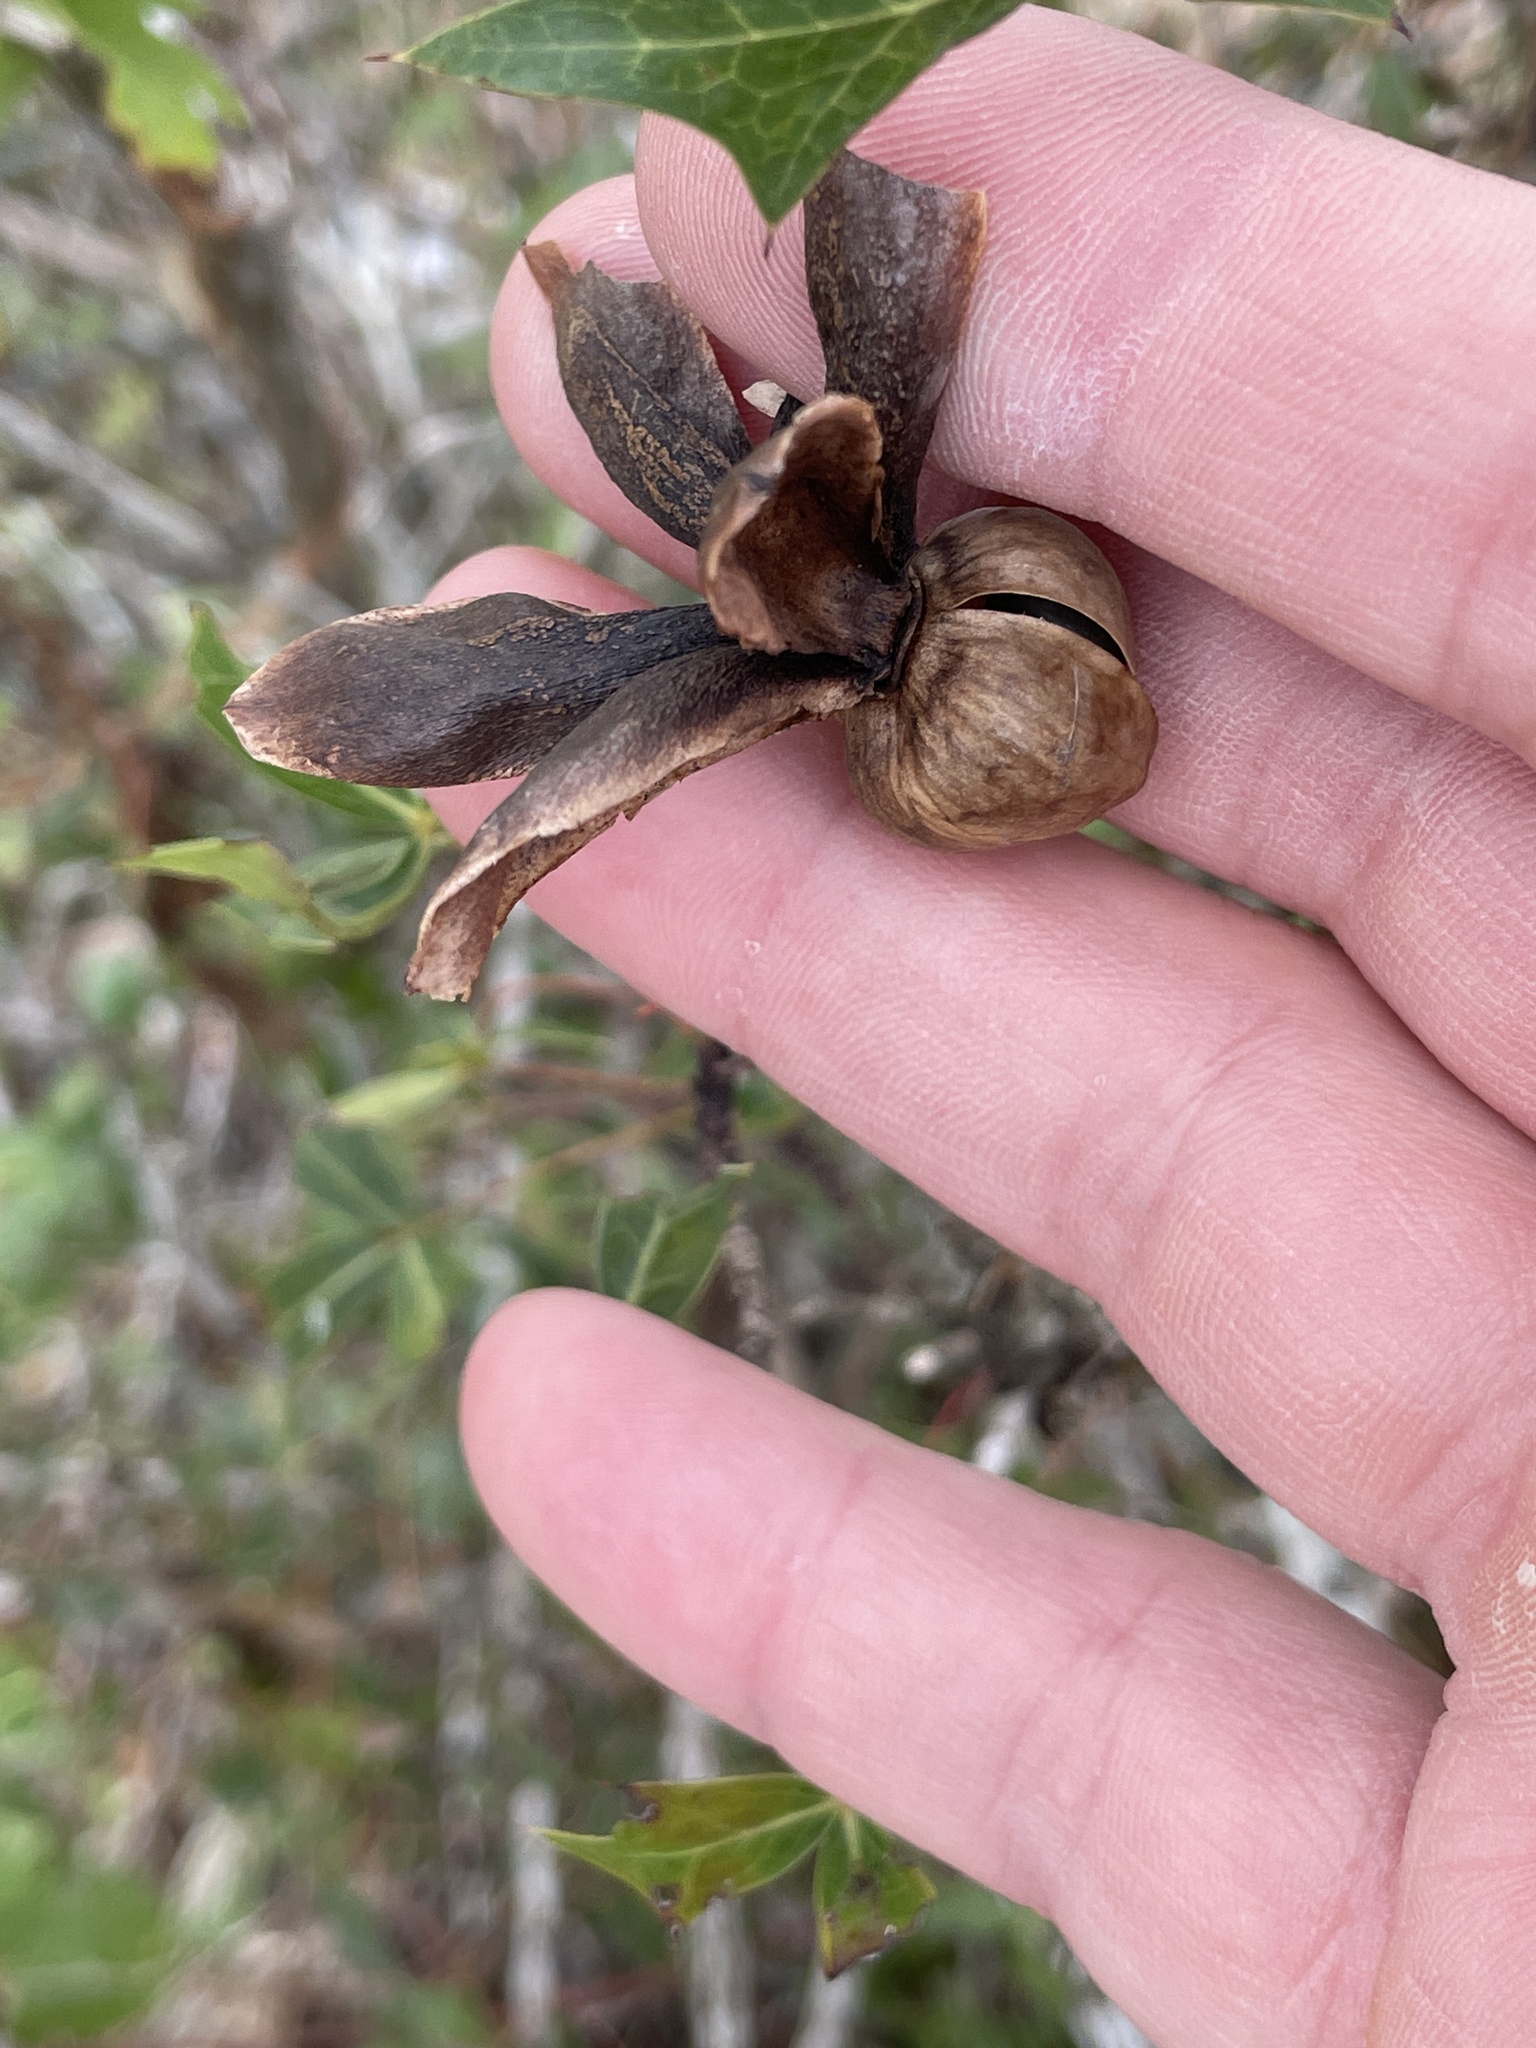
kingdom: Plantae
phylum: Tracheophyta
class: Magnoliopsida
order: Solanales
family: Convolvulaceae
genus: Distimake
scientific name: Distimake dissectus
